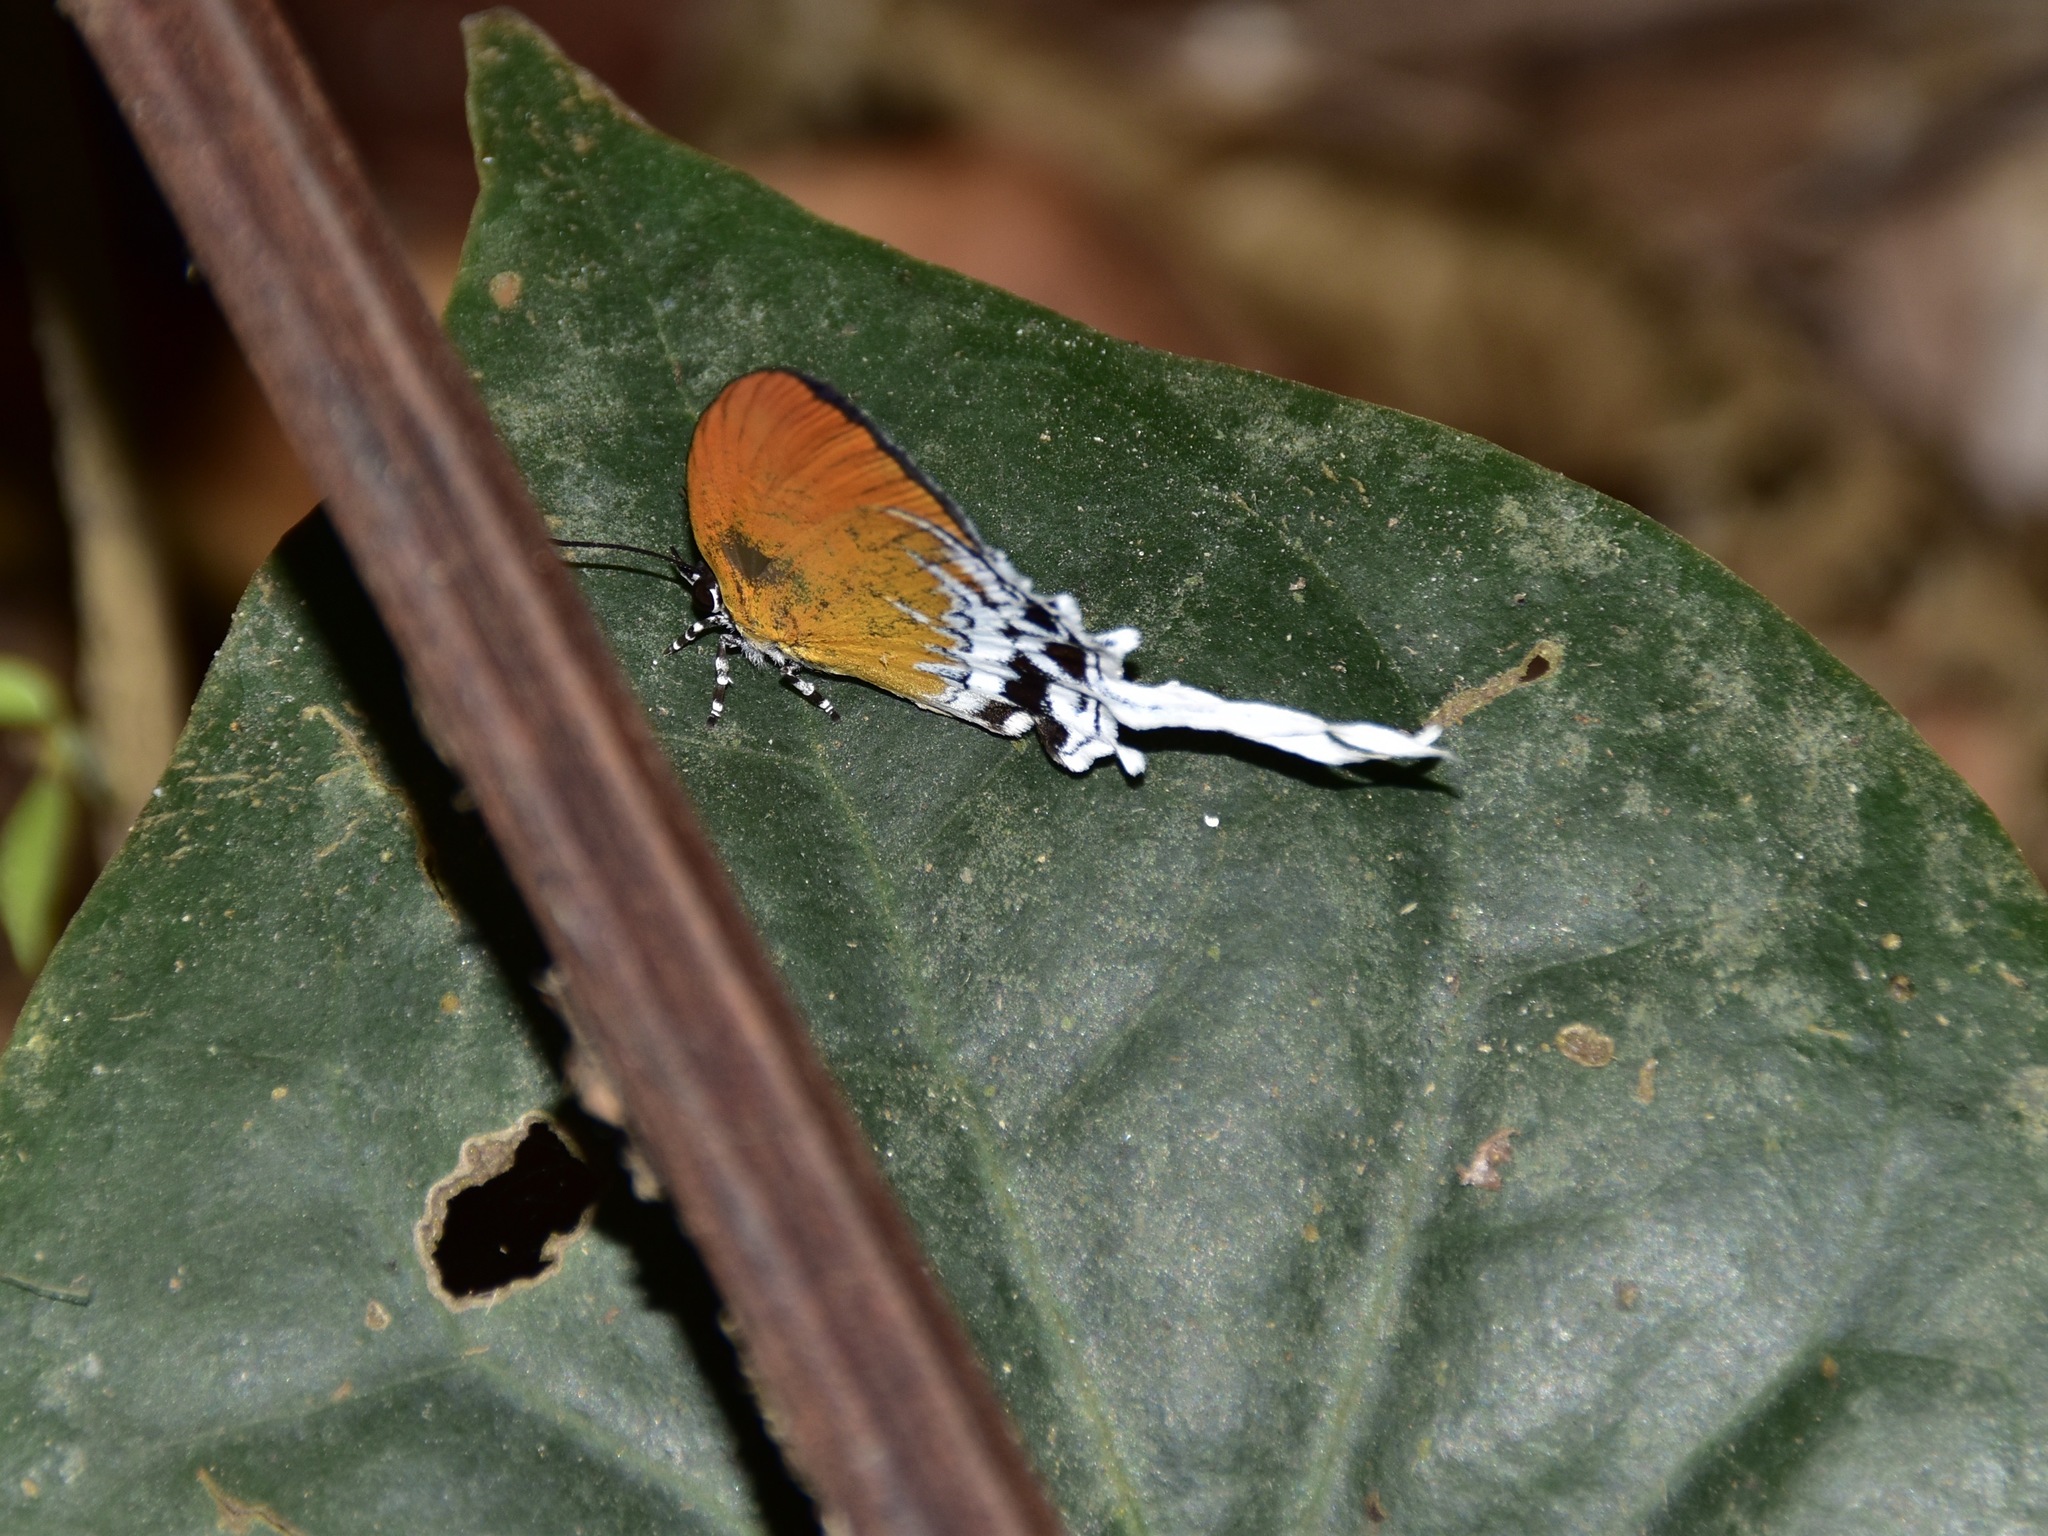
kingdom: Animalia
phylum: Arthropoda
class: Insecta
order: Lepidoptera
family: Lycaenidae
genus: Eooxylides
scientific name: Eooxylides tharis
